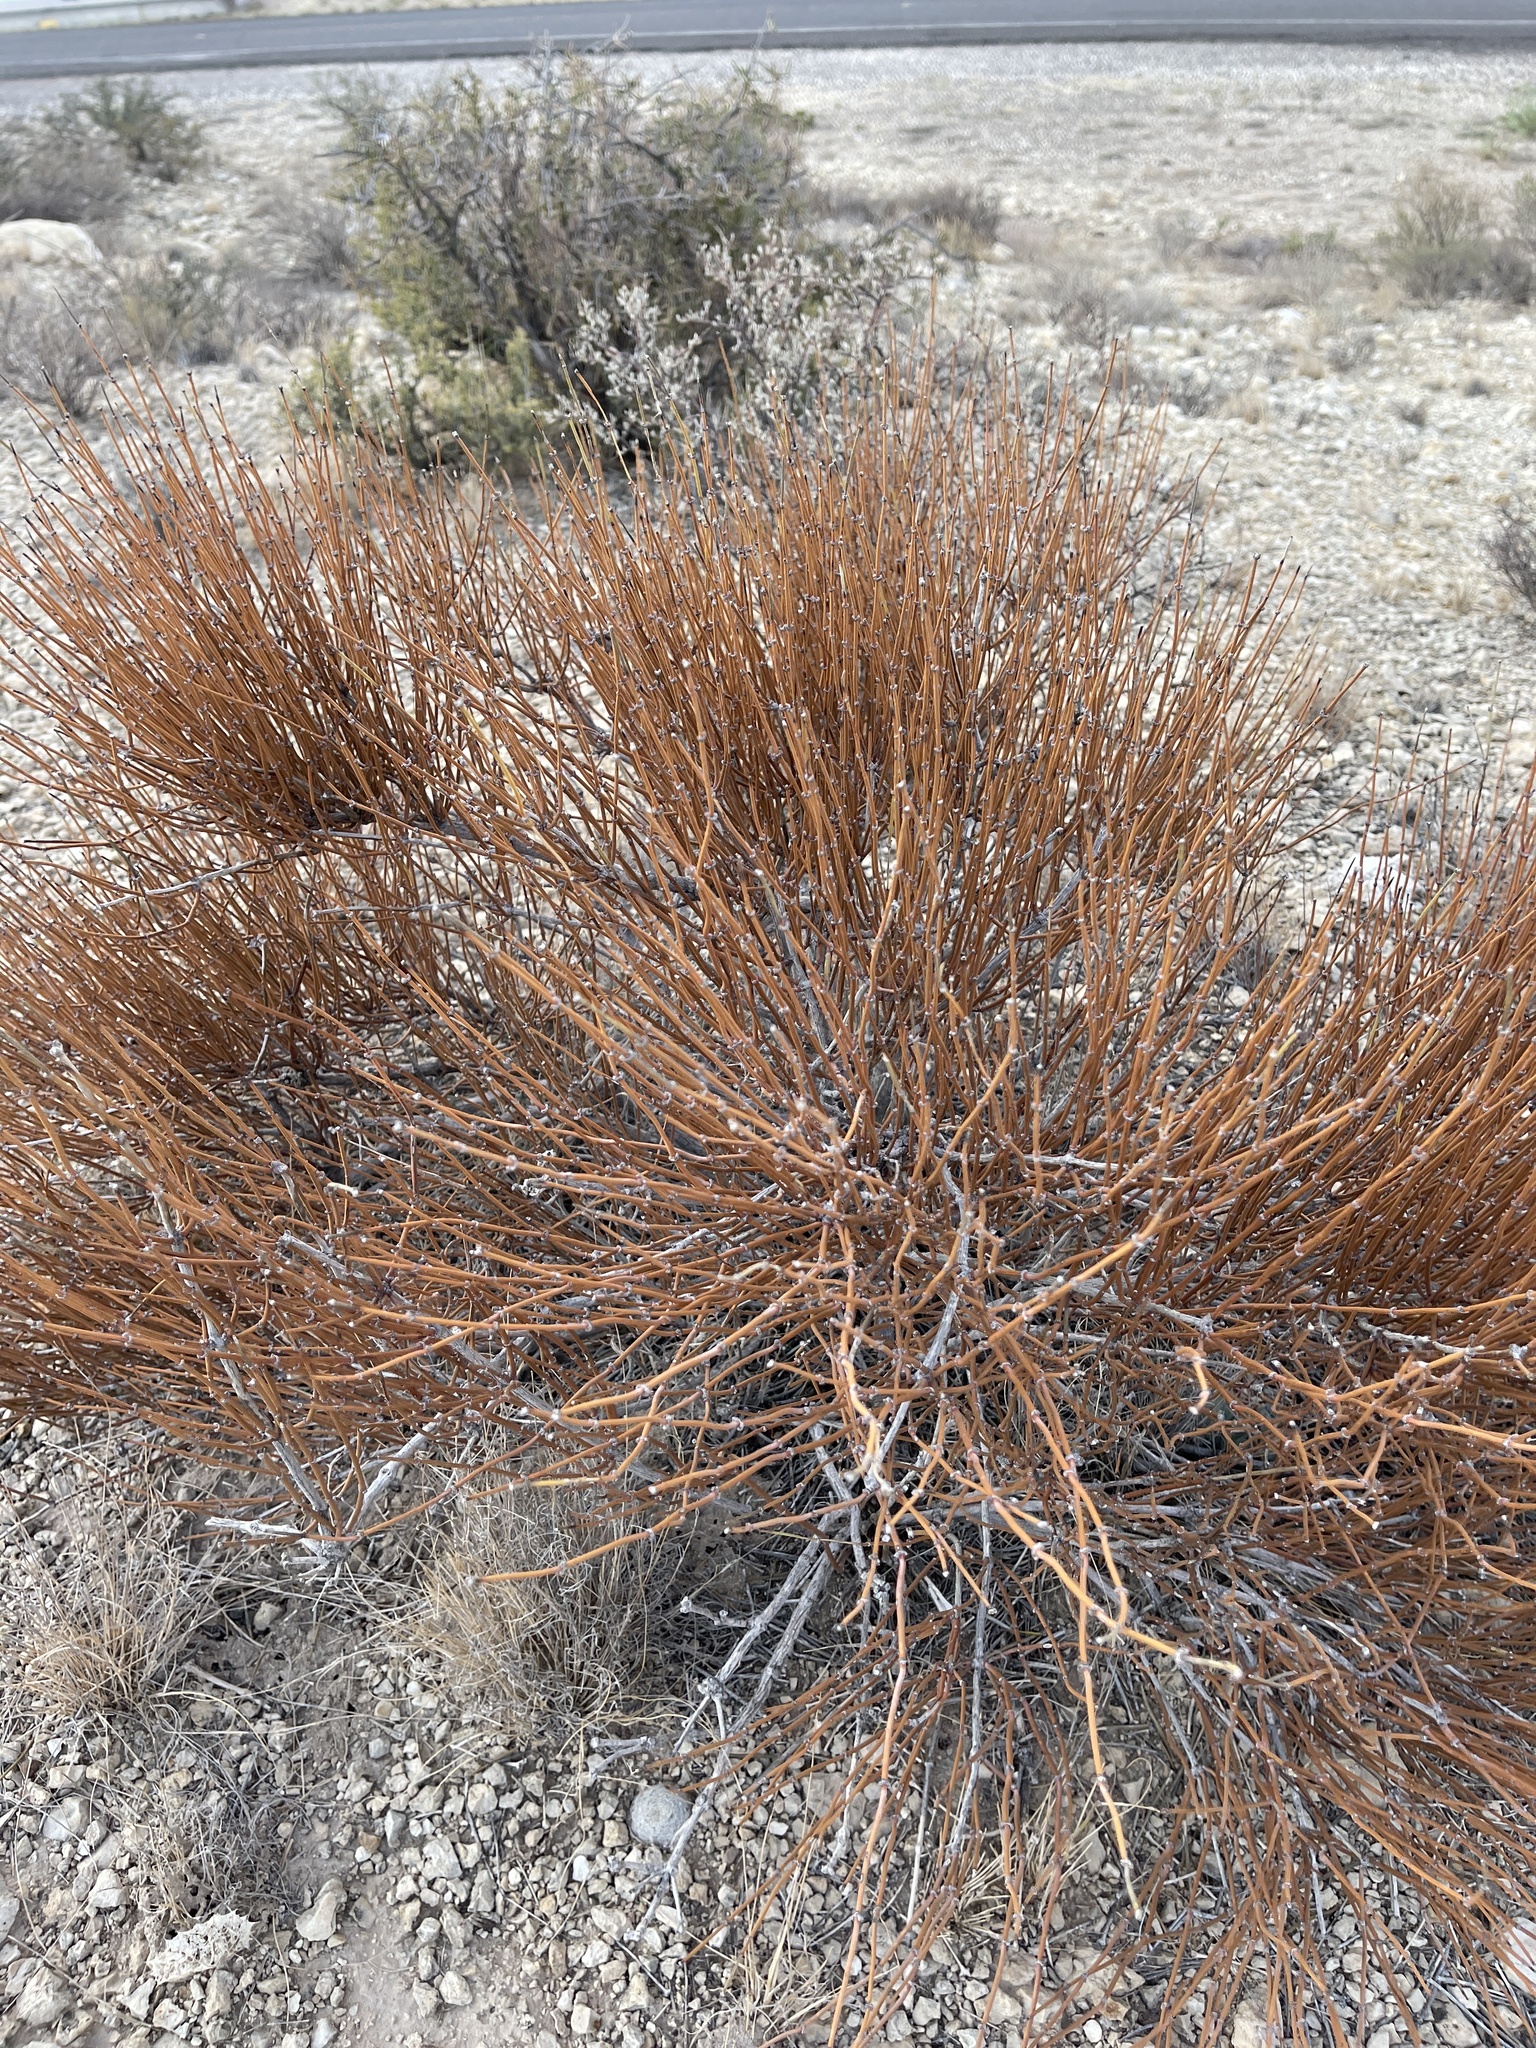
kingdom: Plantae
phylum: Tracheophyta
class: Gnetopsida
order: Ephedrales
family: Ephedraceae
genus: Ephedra
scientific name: Ephedra viridis
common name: Green ephedra
